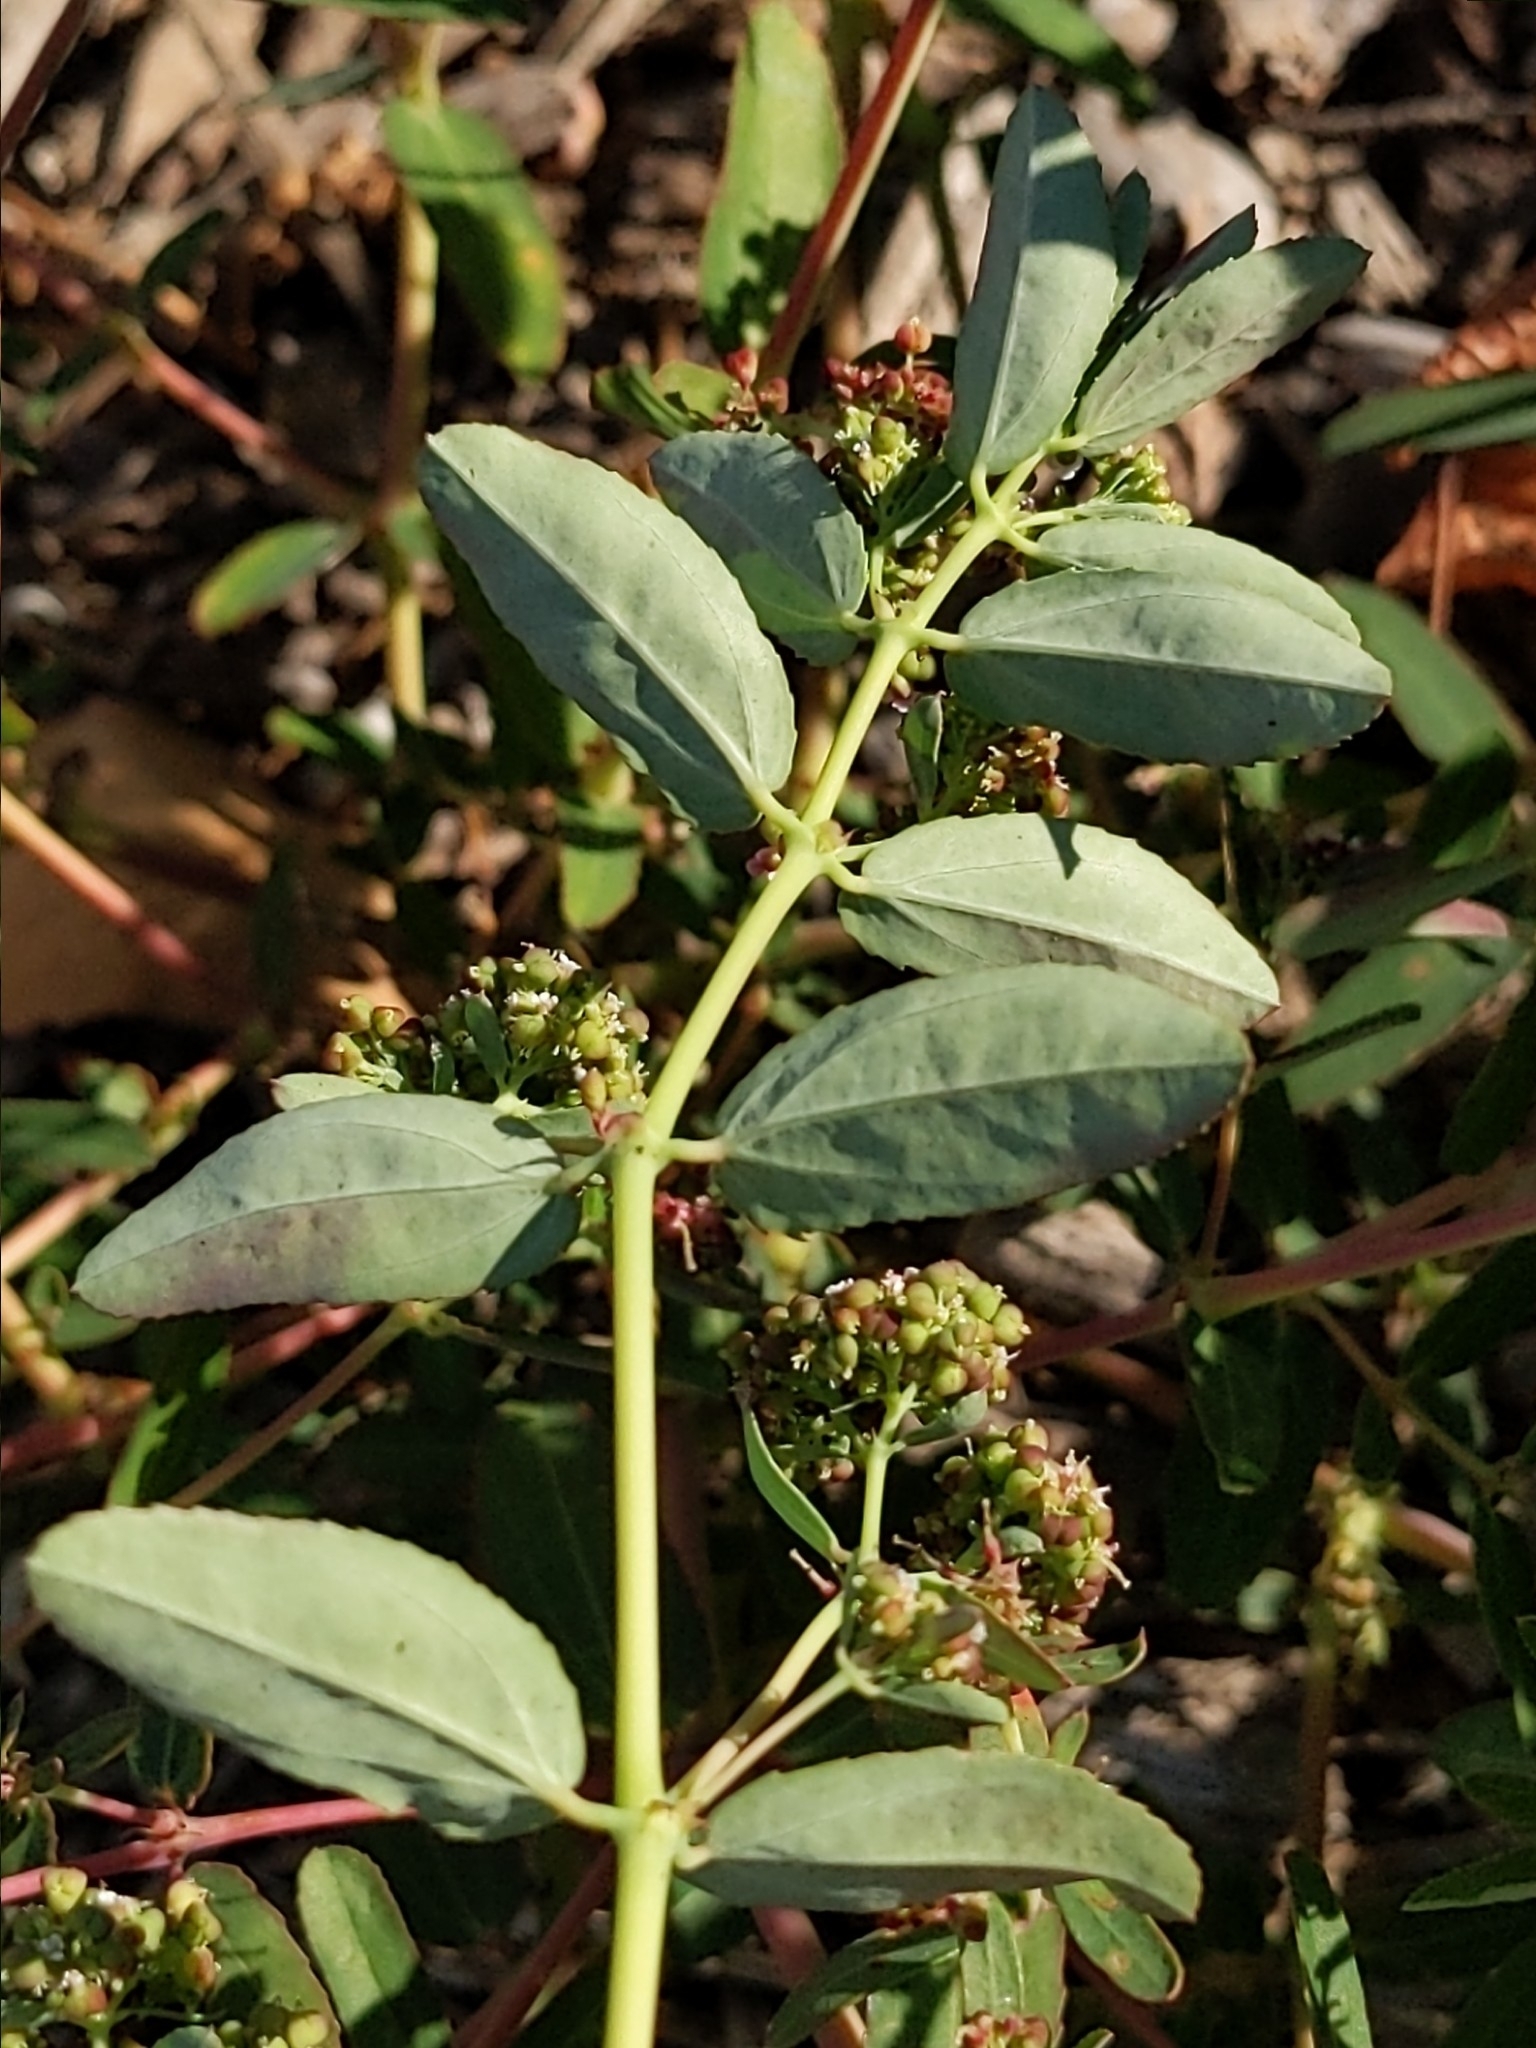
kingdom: Plantae
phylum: Tracheophyta
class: Magnoliopsida
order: Malpighiales
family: Euphorbiaceae
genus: Euphorbia
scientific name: Euphorbia hypericifolia
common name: Graceful sandmat
